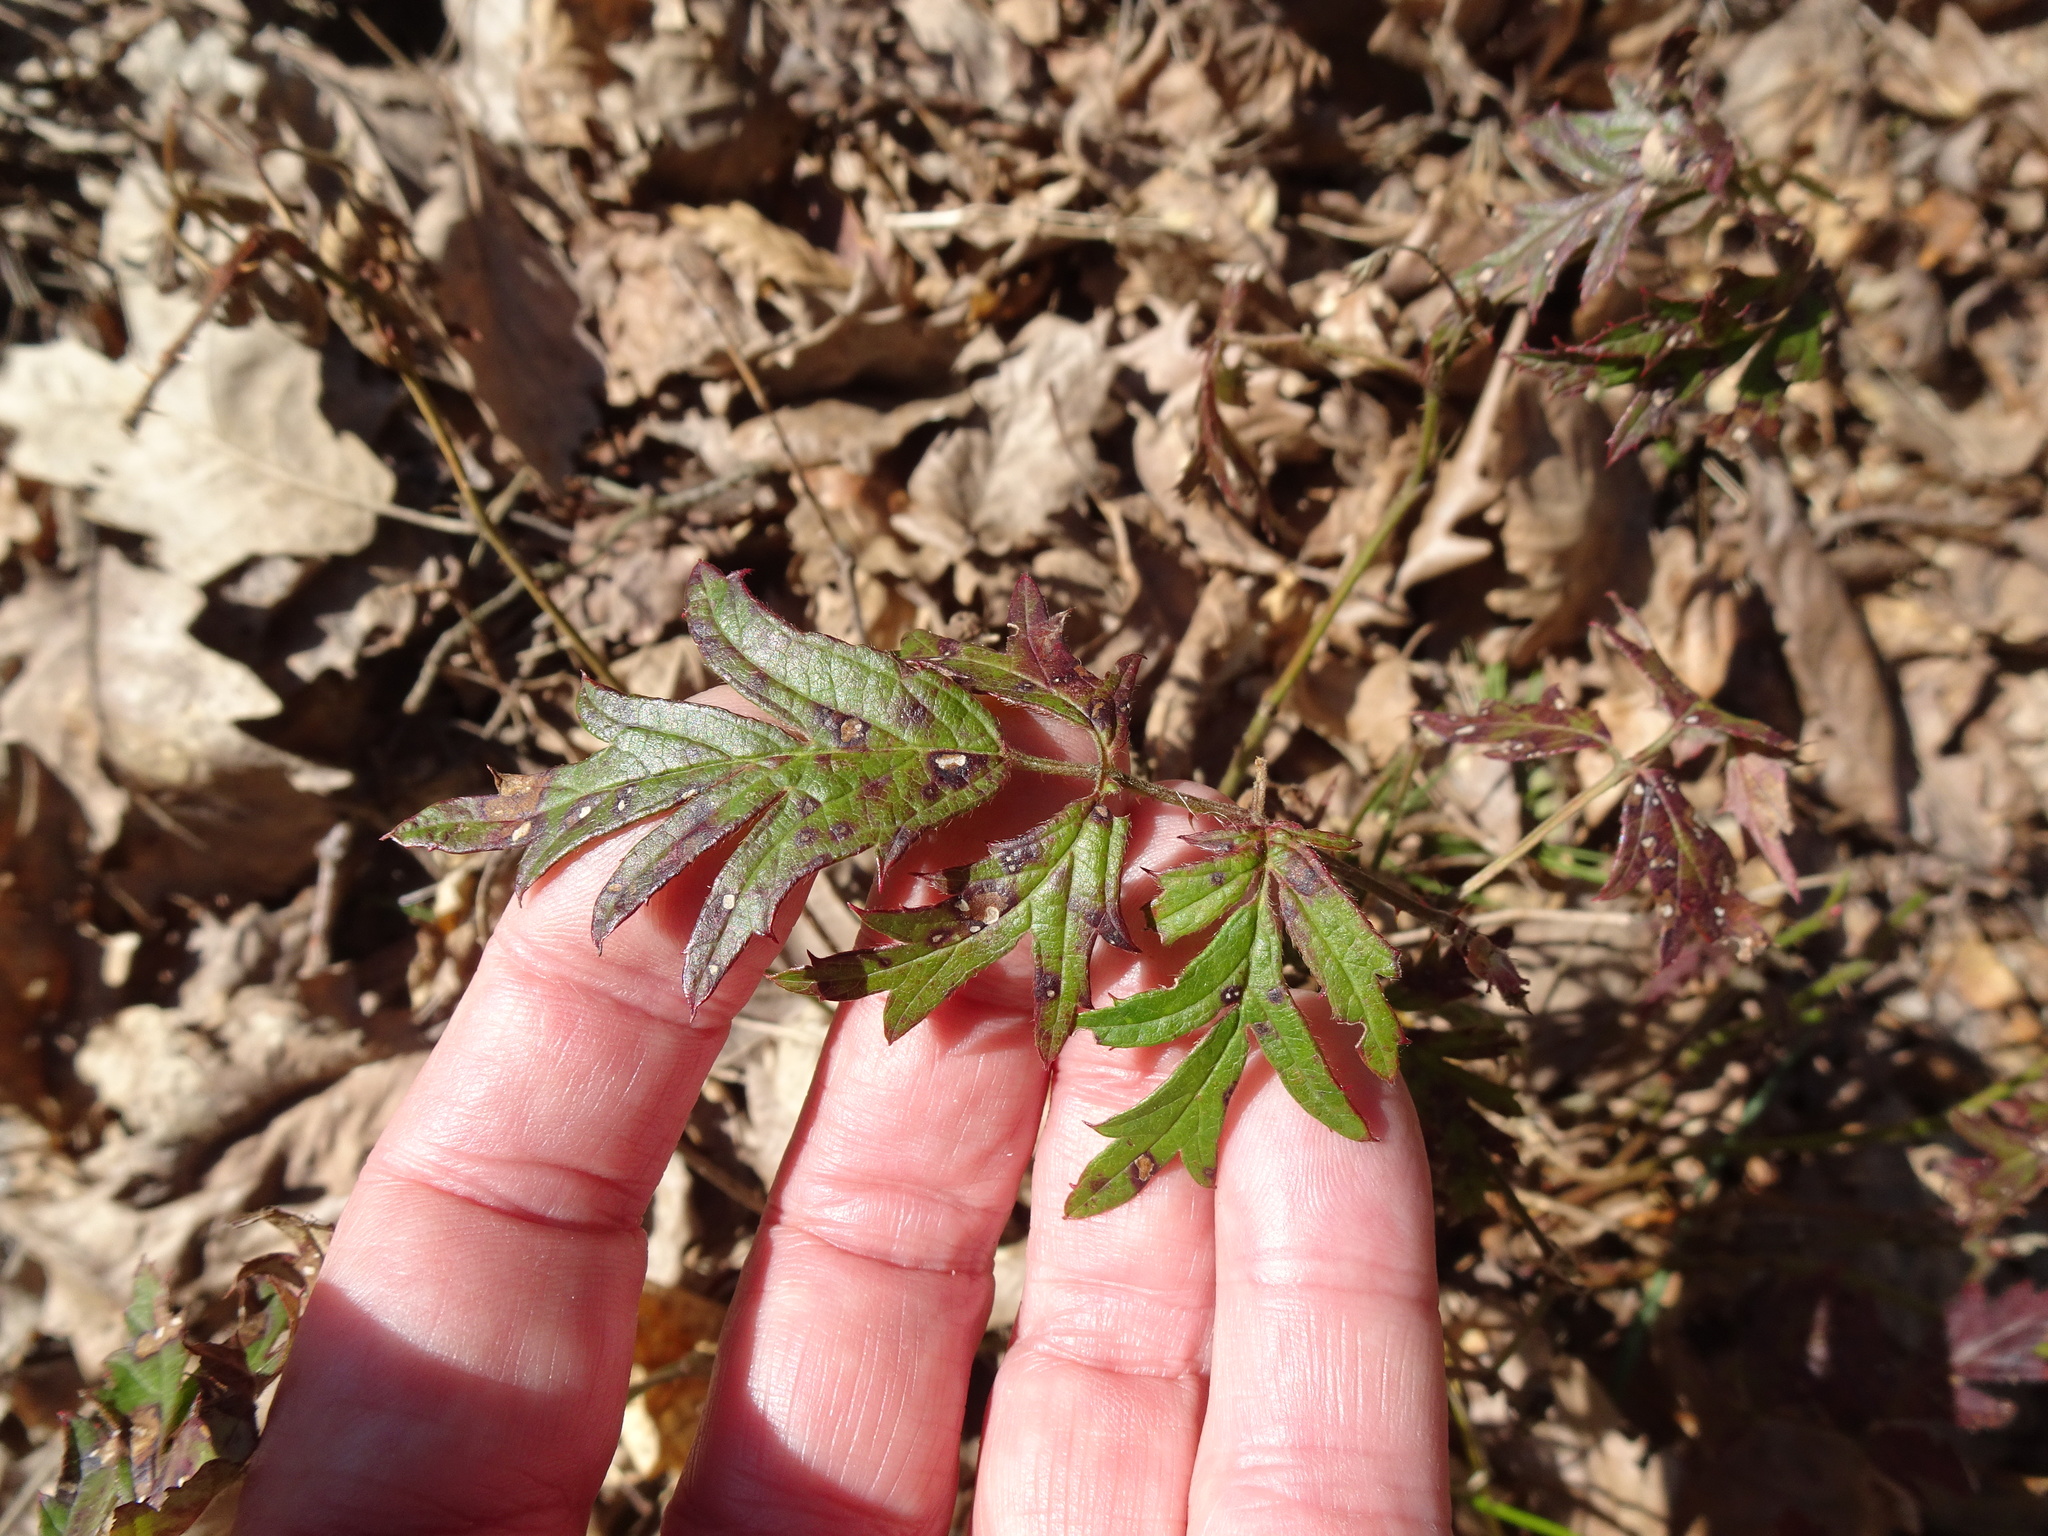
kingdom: Plantae
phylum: Tracheophyta
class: Magnoliopsida
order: Rosales
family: Rosaceae
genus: Rubus
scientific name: Rubus laciniatus
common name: Evergreen blackberry
